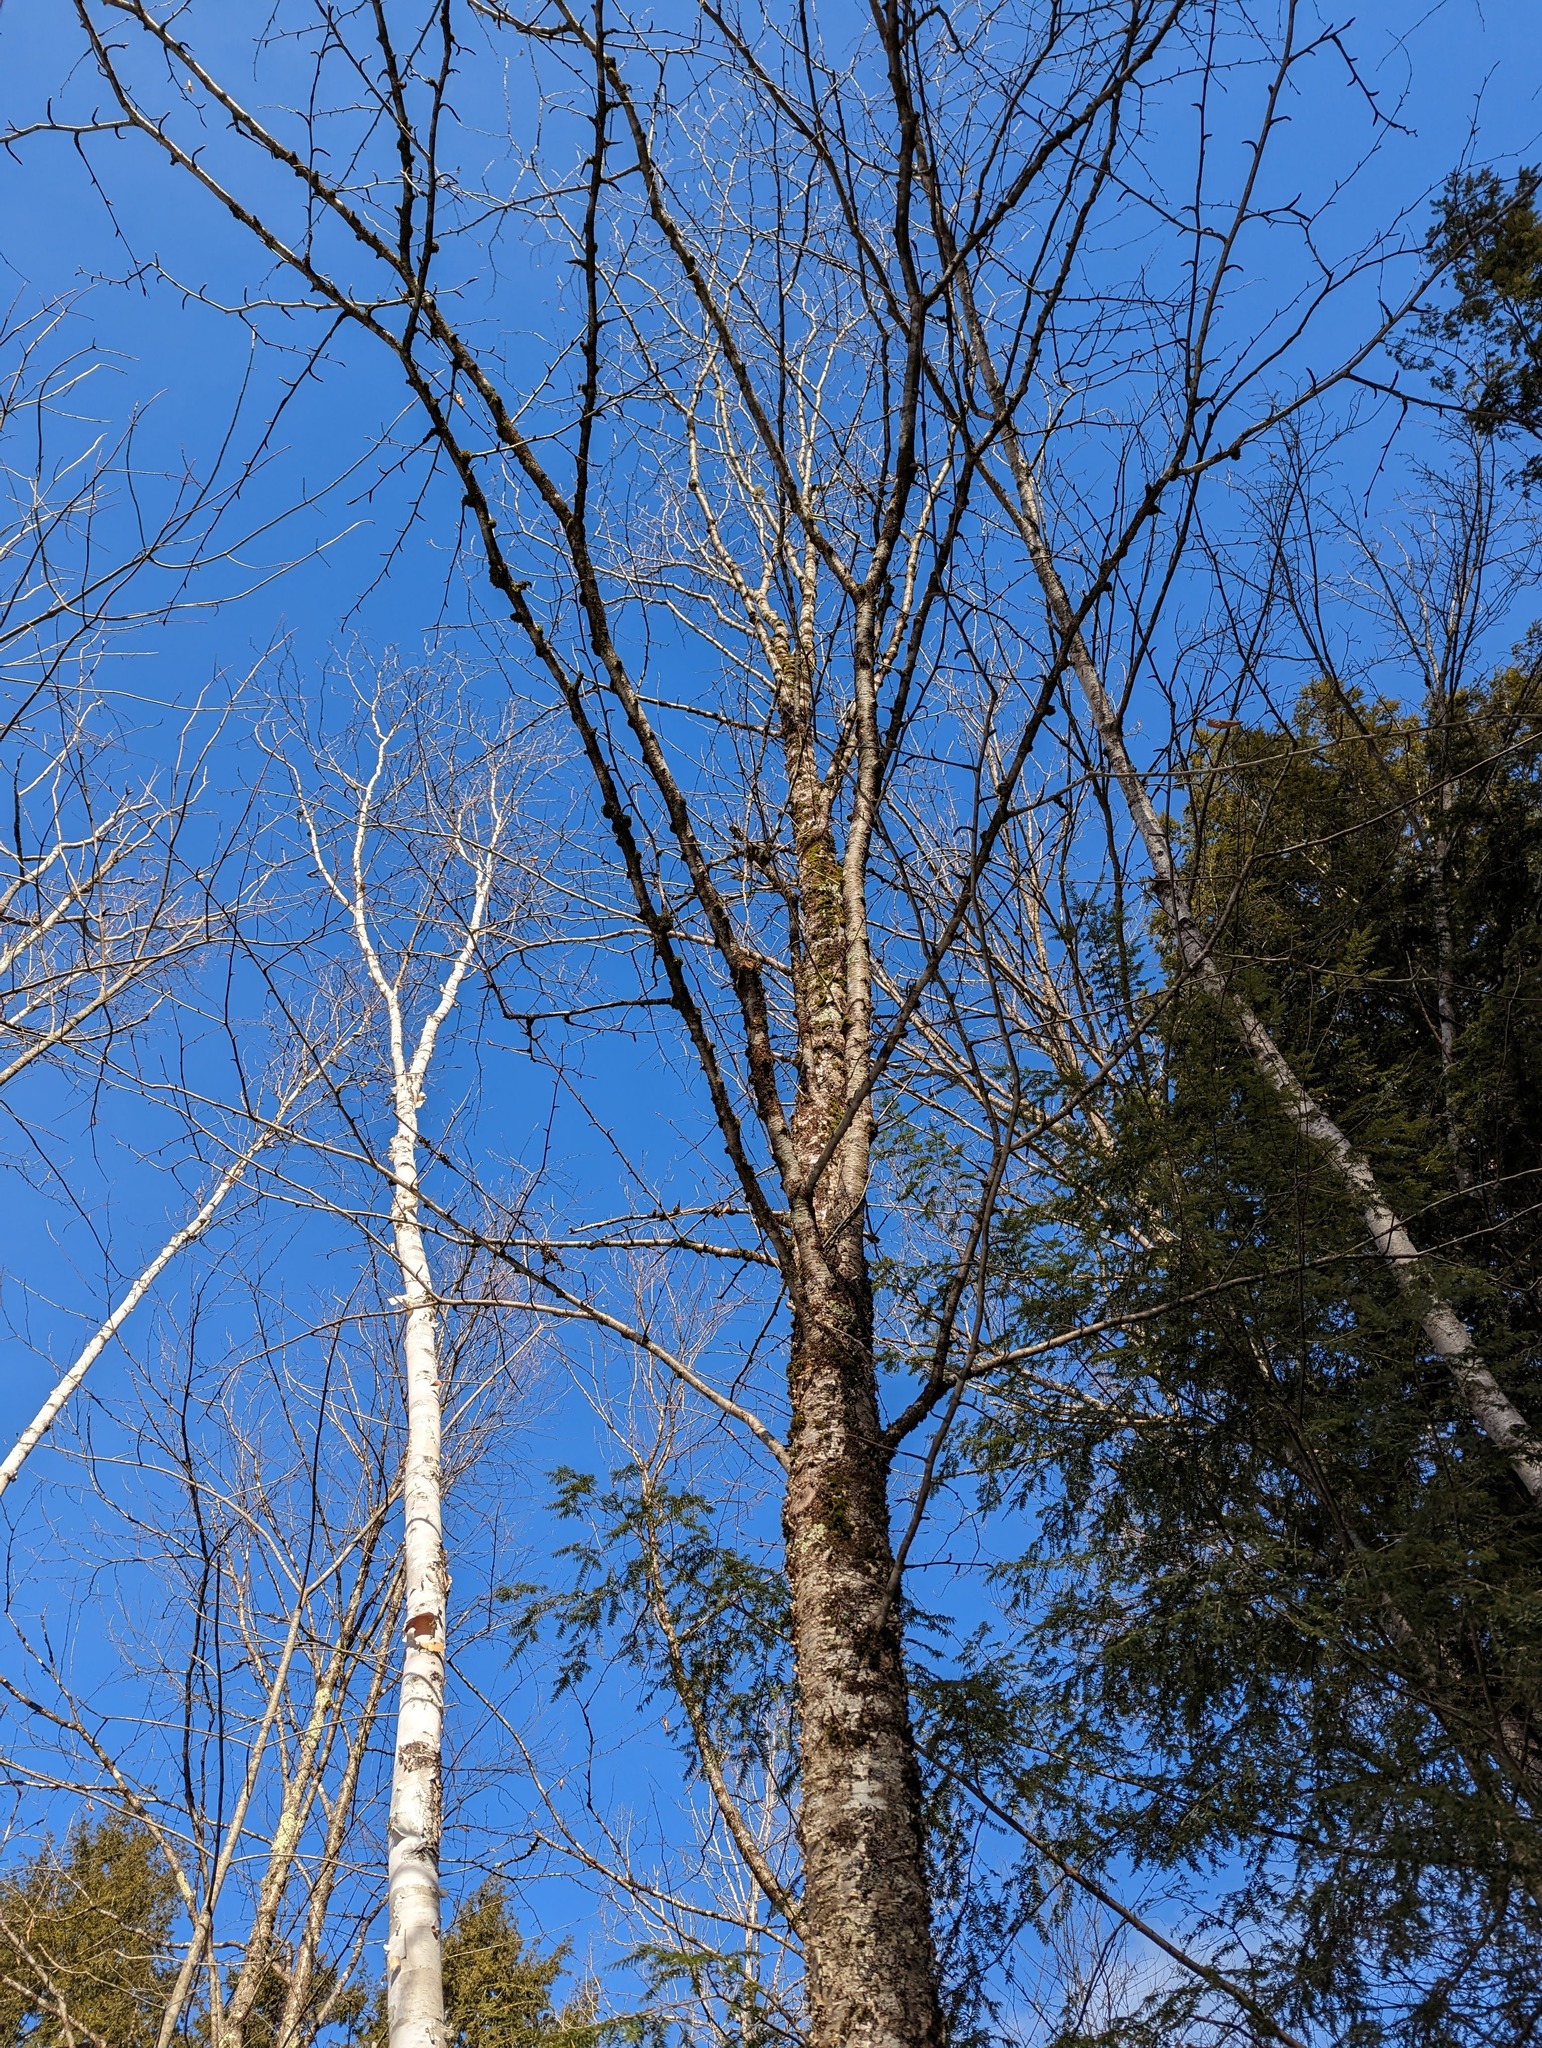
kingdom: Plantae
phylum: Tracheophyta
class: Magnoliopsida
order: Fagales
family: Betulaceae
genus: Betula
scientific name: Betula alleghaniensis
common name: Yellow birch
